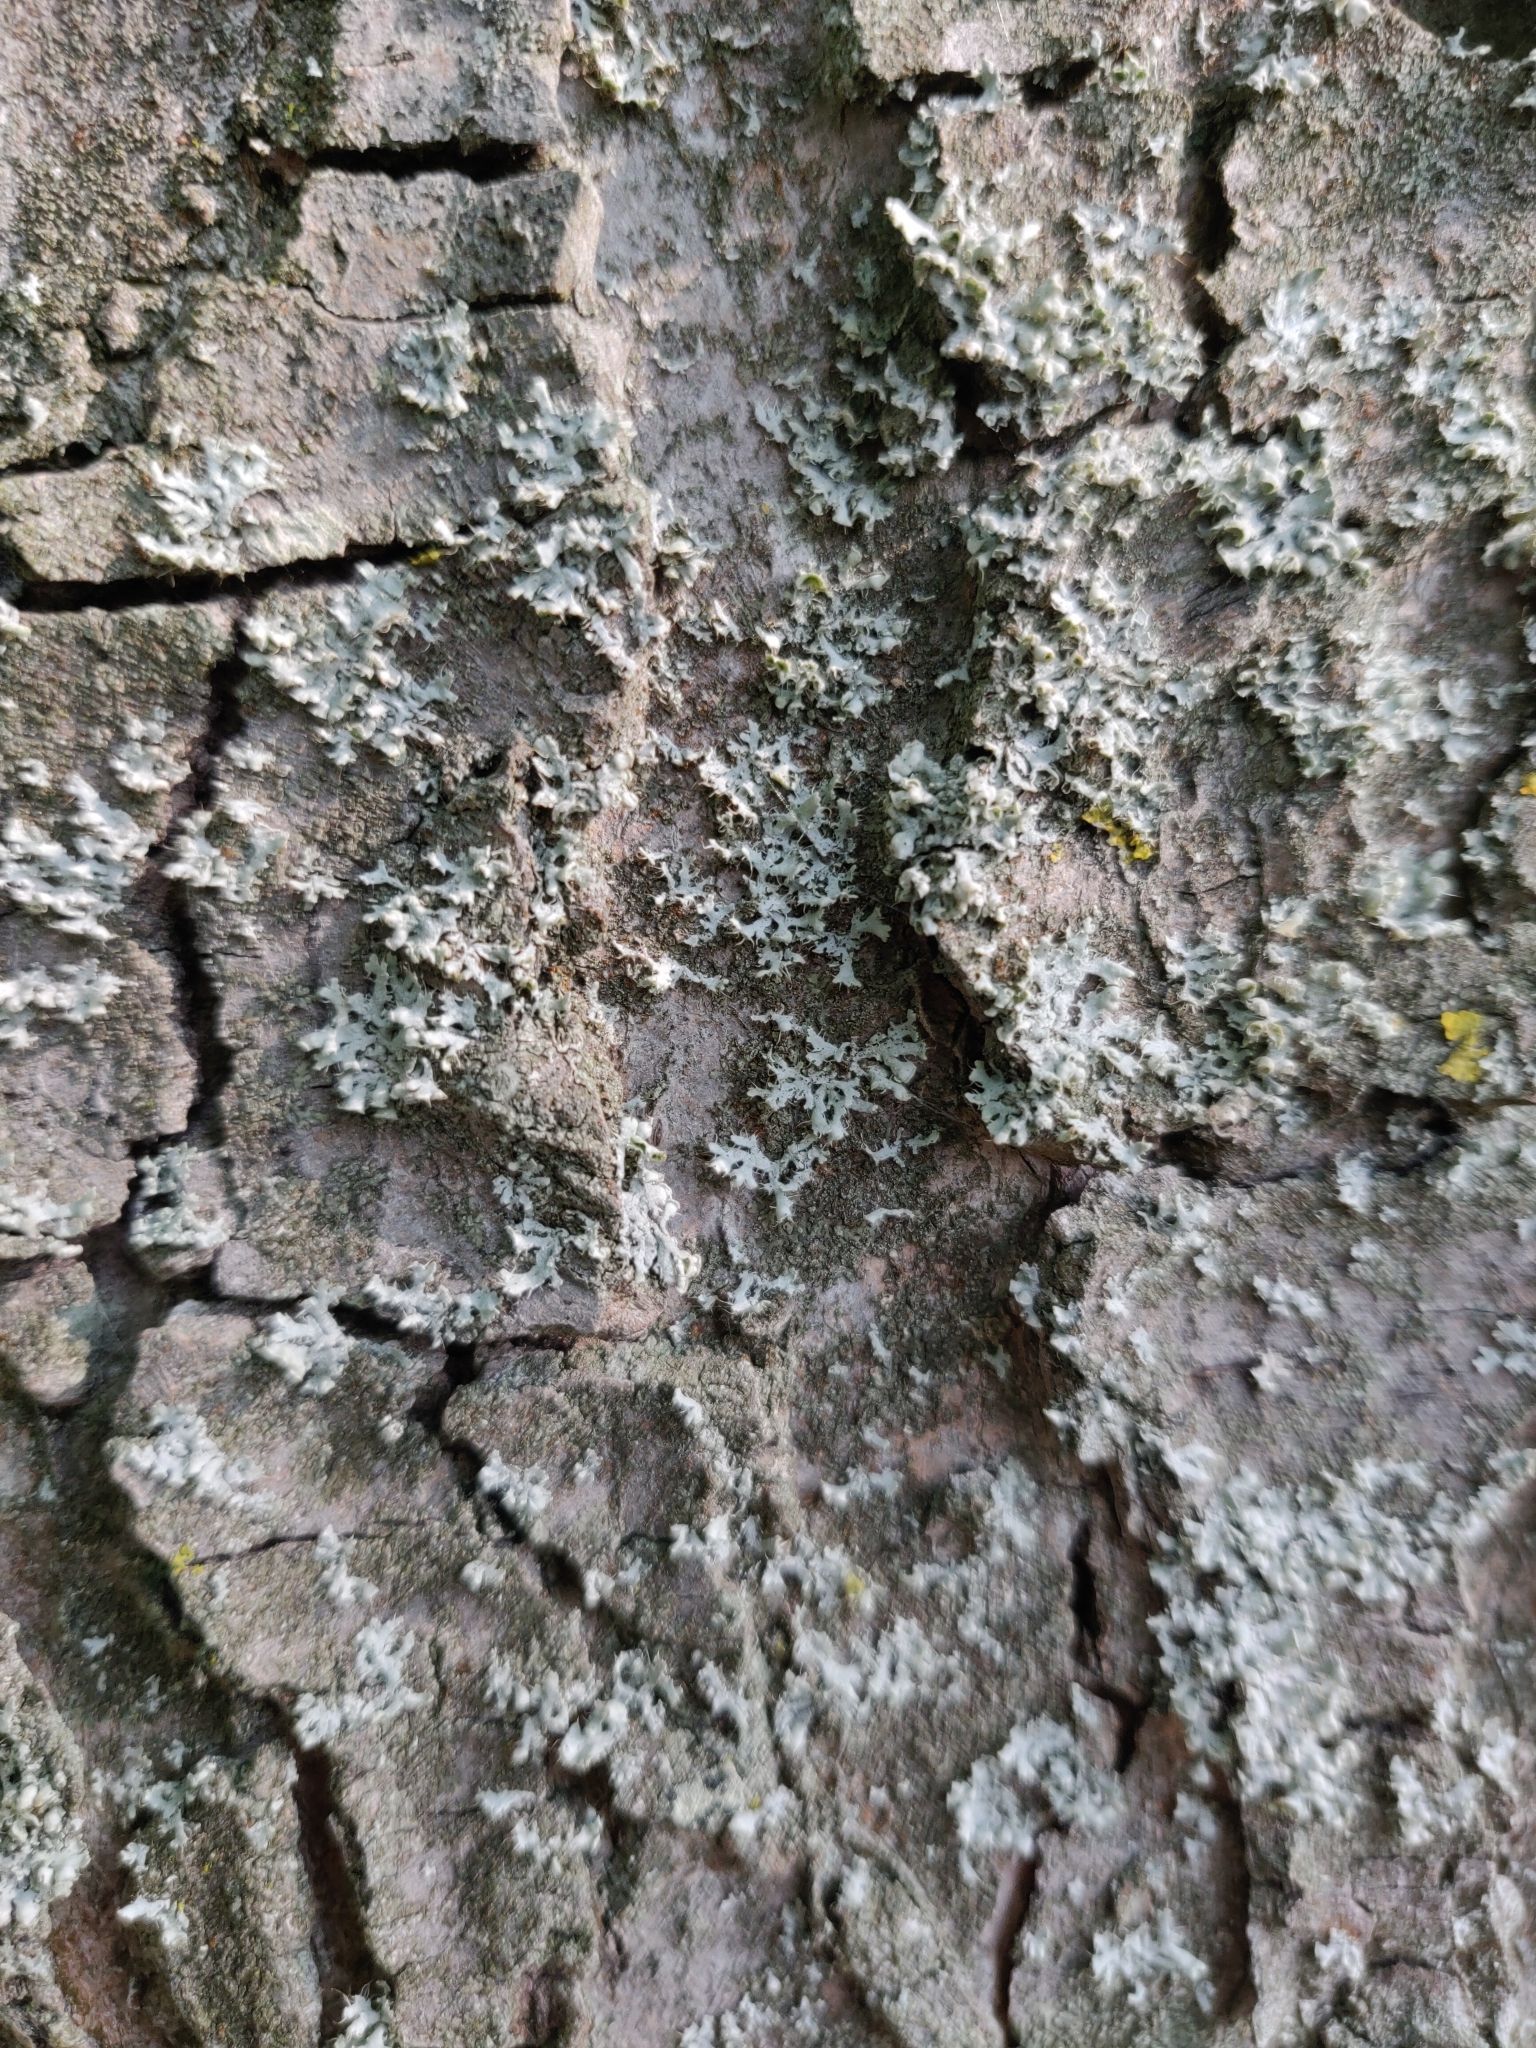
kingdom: Fungi
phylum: Ascomycota
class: Lecanoromycetes
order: Caliciales
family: Physciaceae
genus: Physcia
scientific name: Physcia adscendens
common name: Hooded rosette lichen
